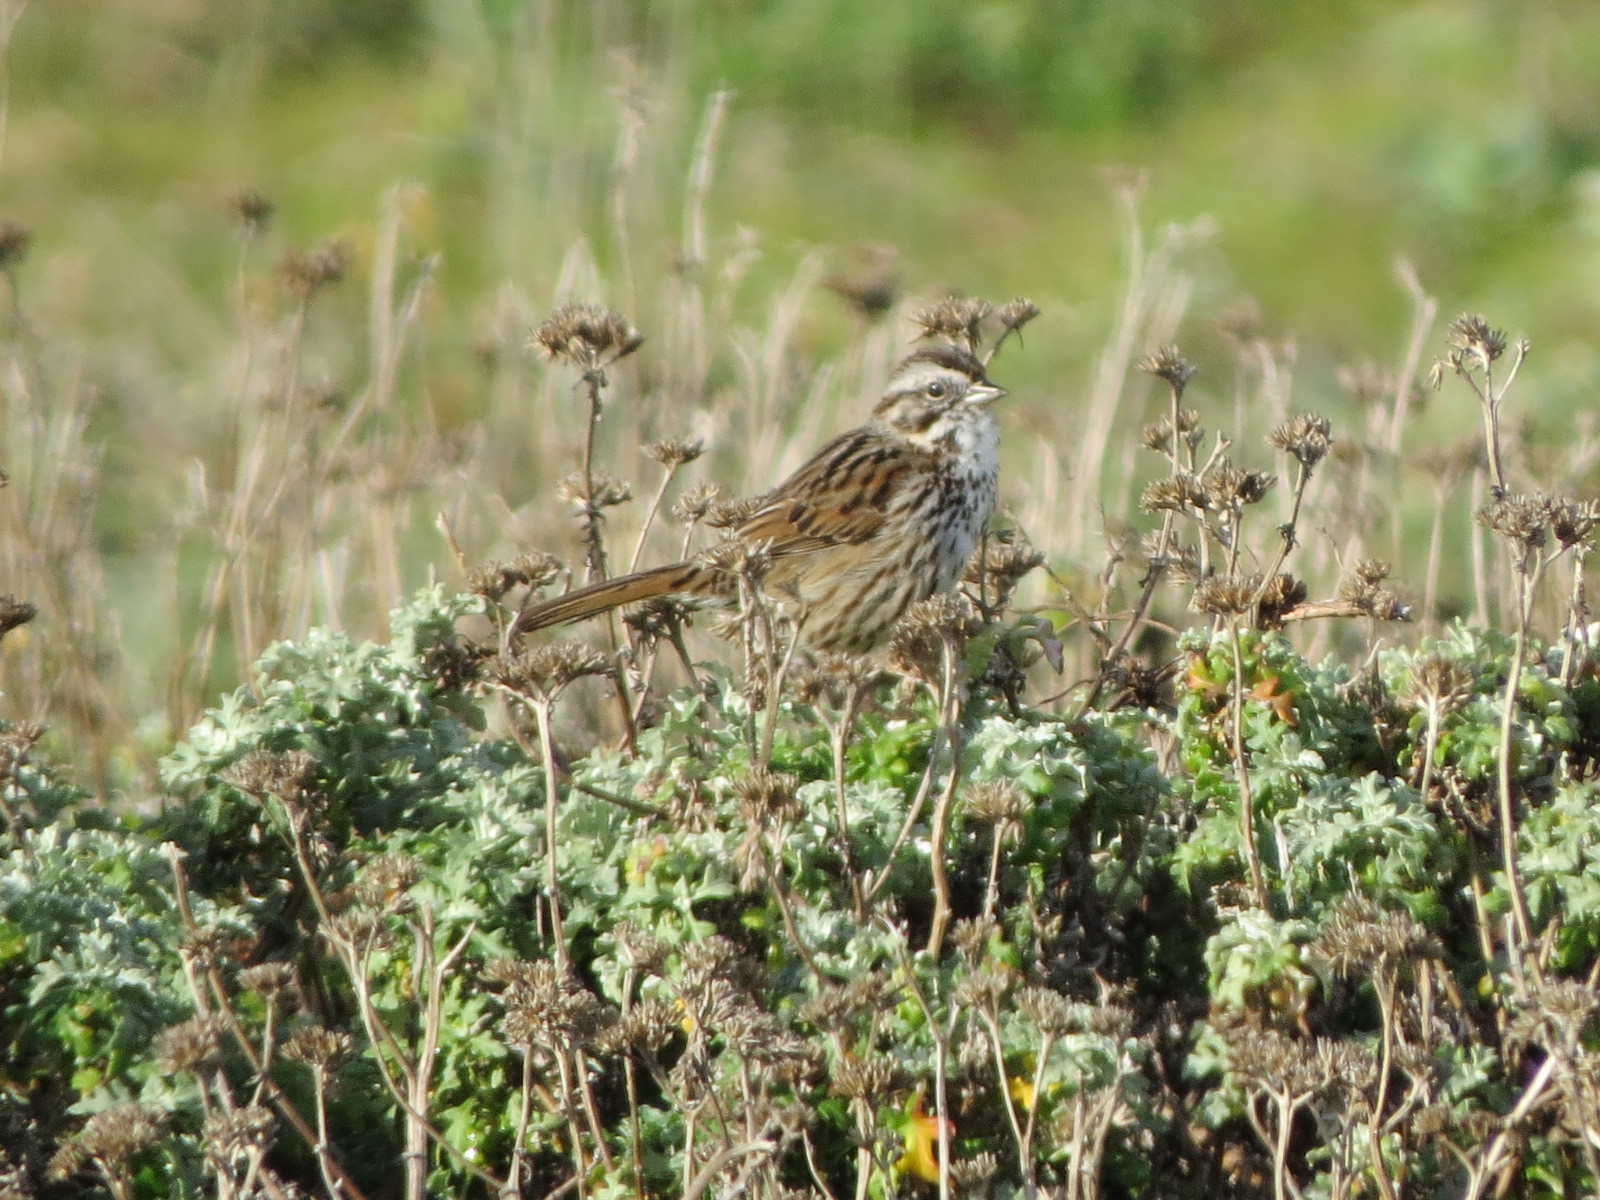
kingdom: Animalia
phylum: Chordata
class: Aves
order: Passeriformes
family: Passerellidae
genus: Melospiza
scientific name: Melospiza melodia
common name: Song sparrow
